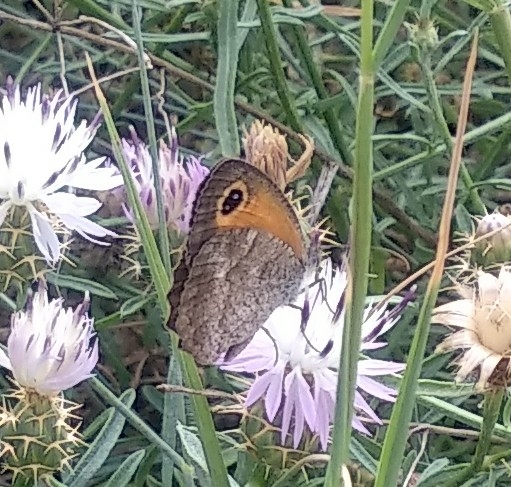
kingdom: Animalia
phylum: Arthropoda
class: Insecta
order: Lepidoptera
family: Nymphalidae
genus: Pyronia
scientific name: Pyronia cecilia
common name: Southern gatekeeper
